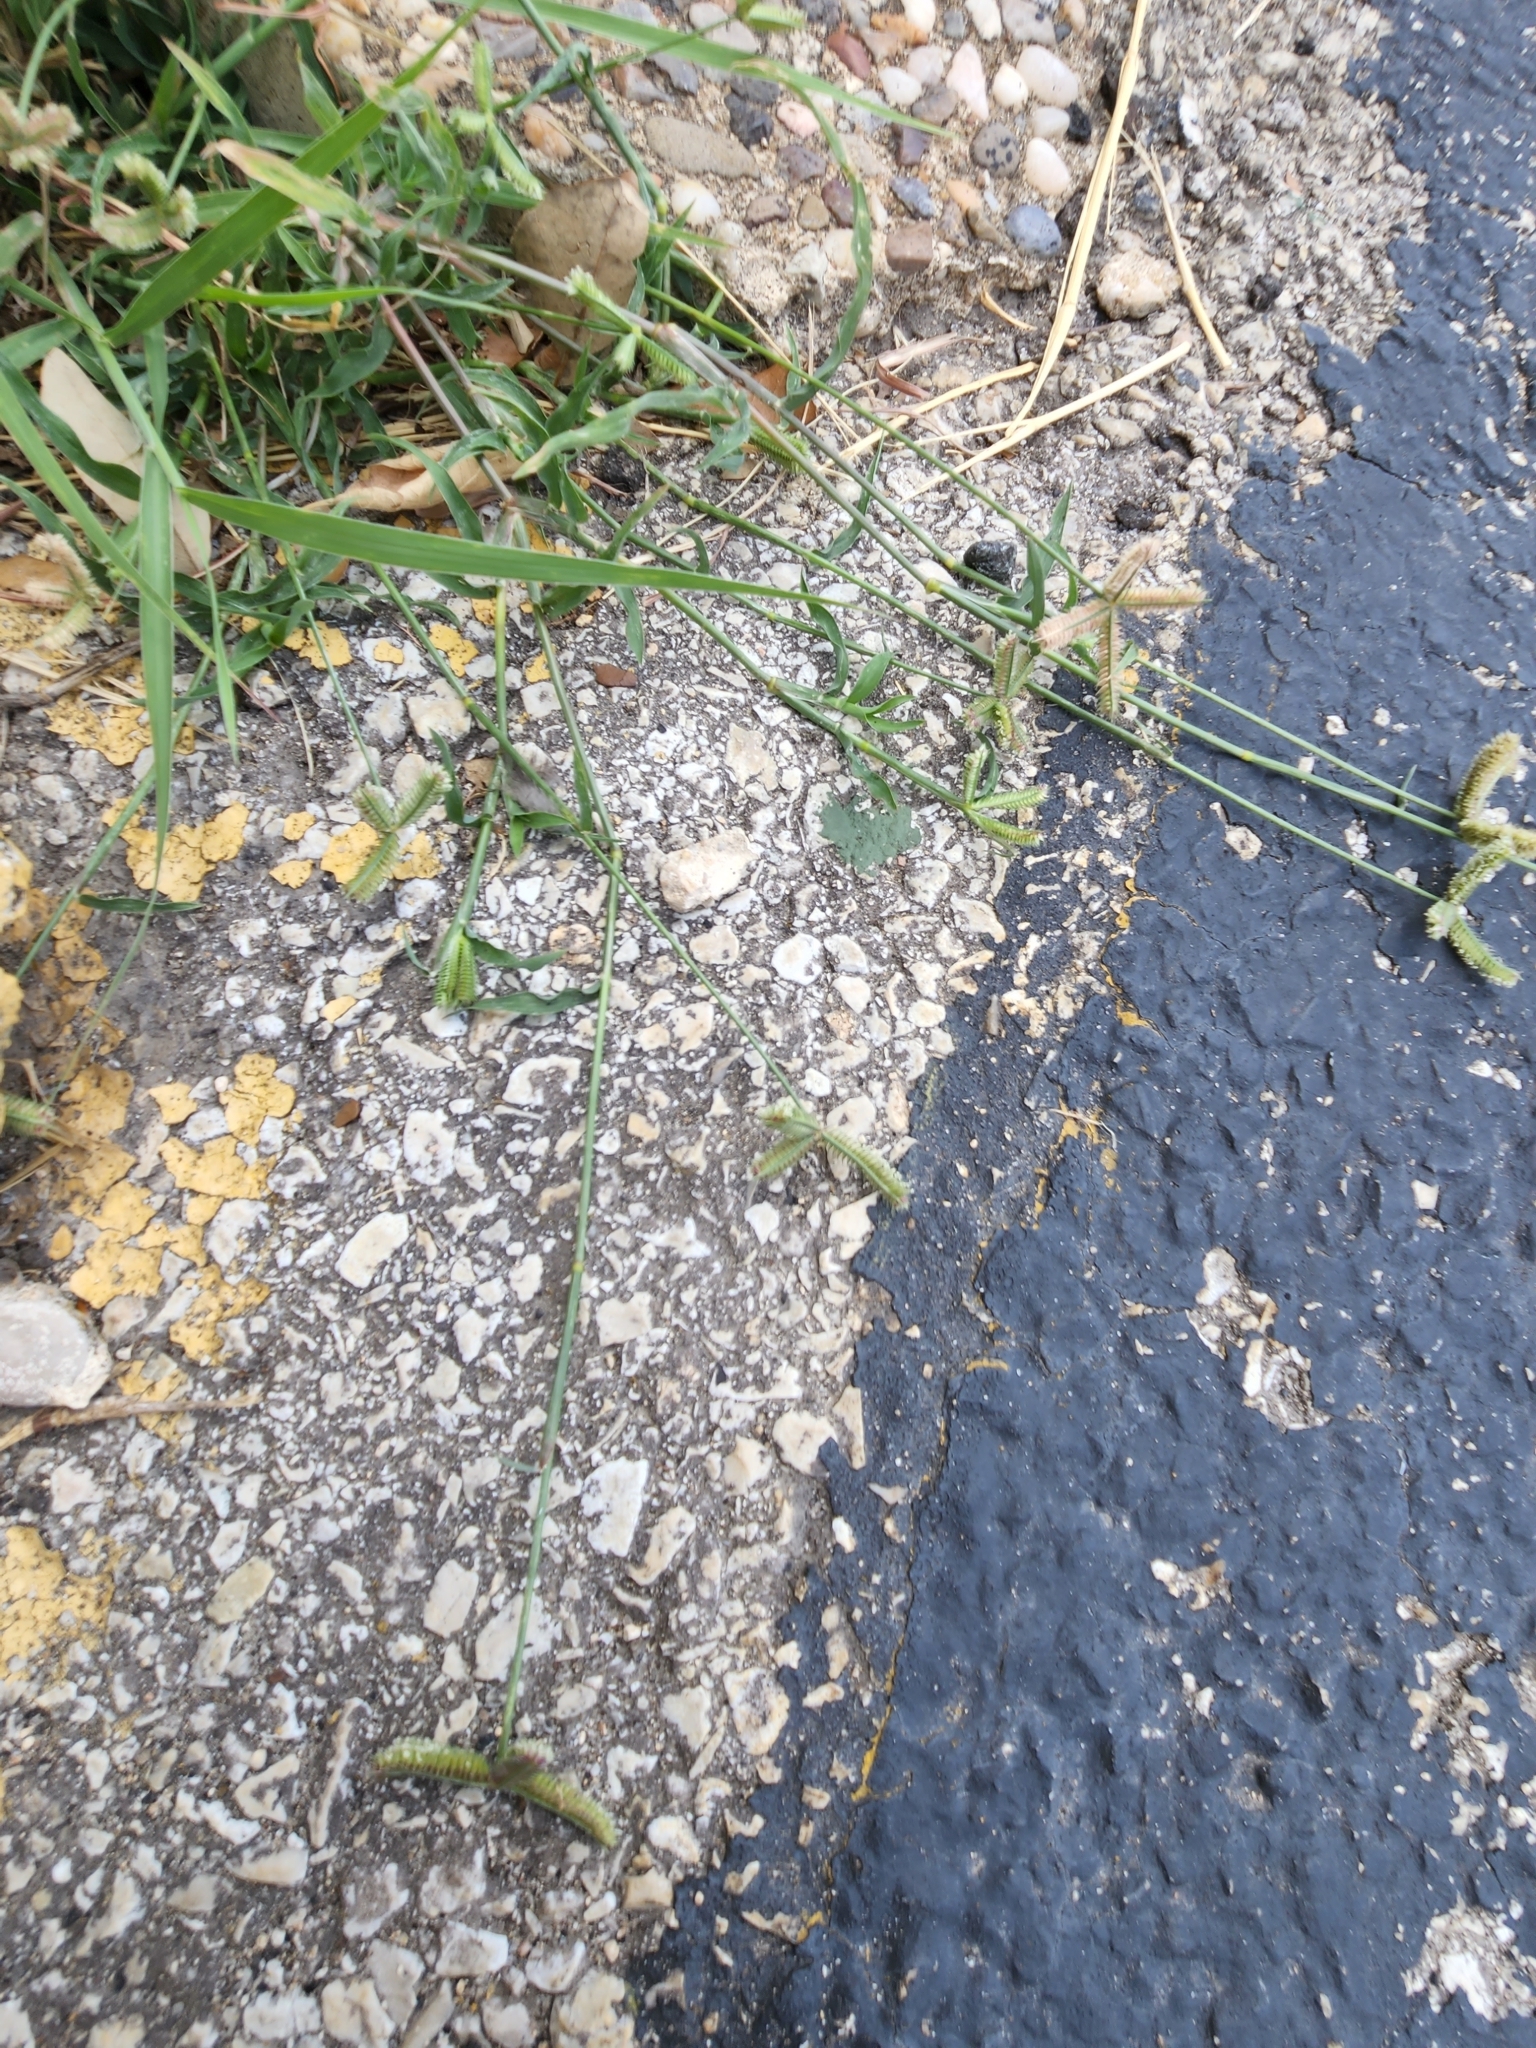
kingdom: Plantae
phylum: Tracheophyta
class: Liliopsida
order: Poales
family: Poaceae
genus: Dactyloctenium
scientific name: Dactyloctenium aegyptium
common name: Egyptian grass
